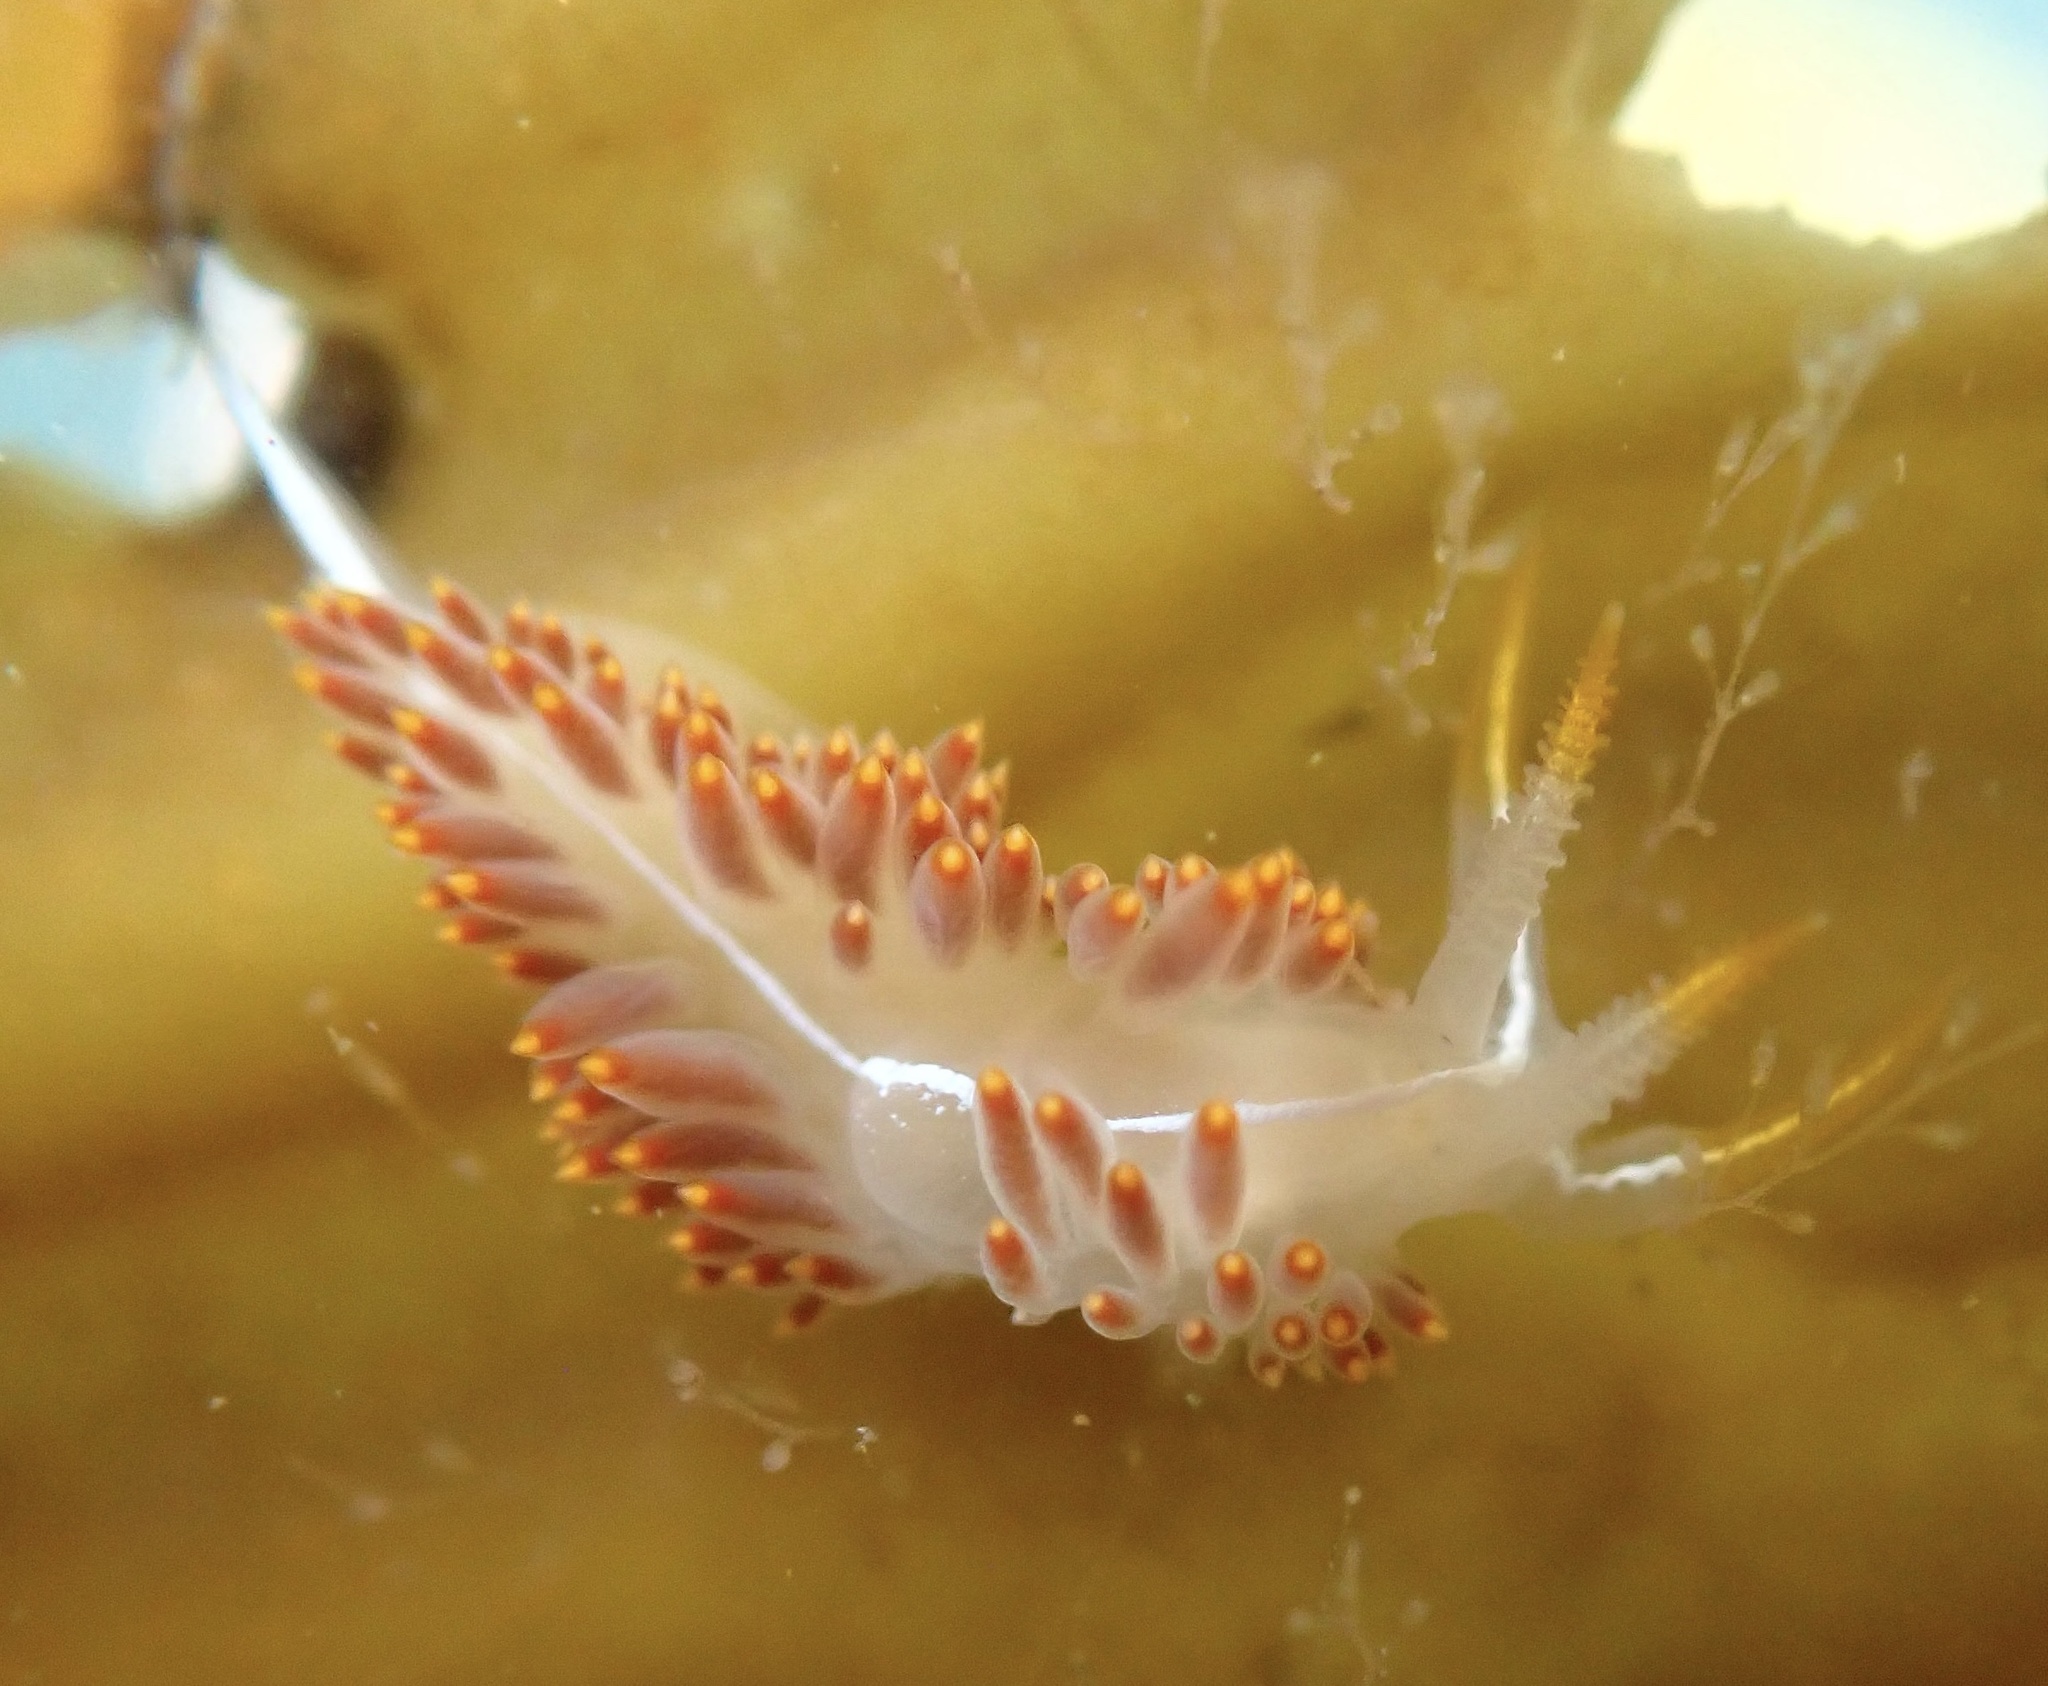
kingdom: Animalia
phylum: Mollusca
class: Gastropoda
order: Nudibranchia
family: Coryphellidae
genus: Coryphella
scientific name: Coryphella trilineata
